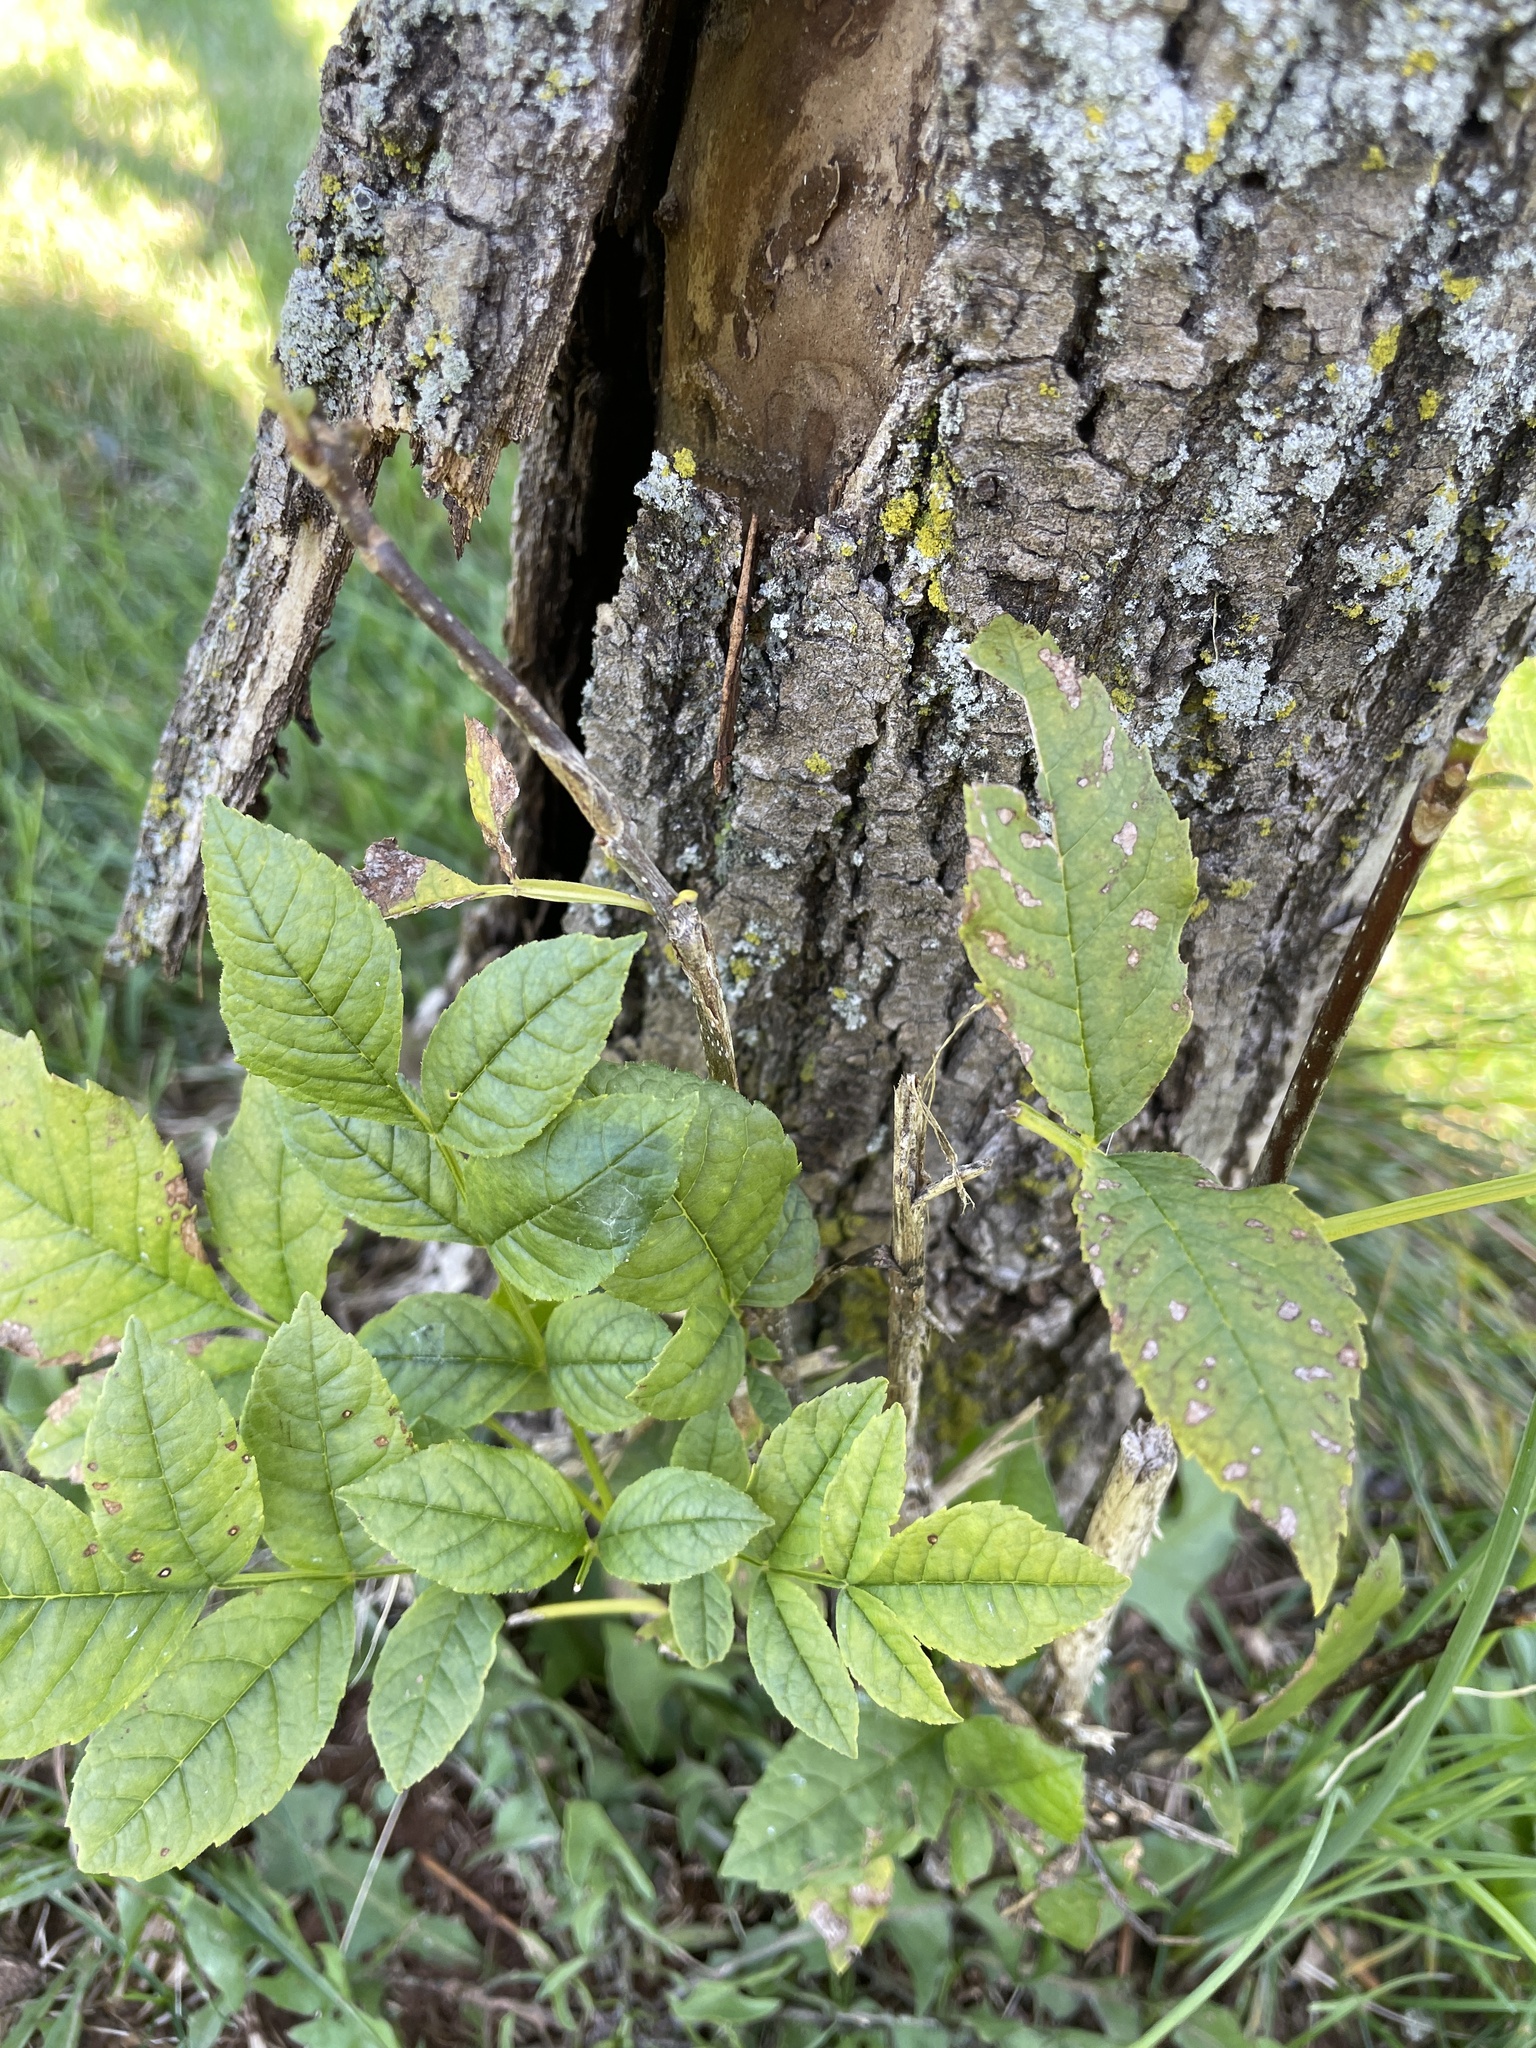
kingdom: Animalia
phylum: Arthropoda
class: Insecta
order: Coleoptera
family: Buprestidae
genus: Agrilus
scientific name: Agrilus planipennis
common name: Emerald ash borer
